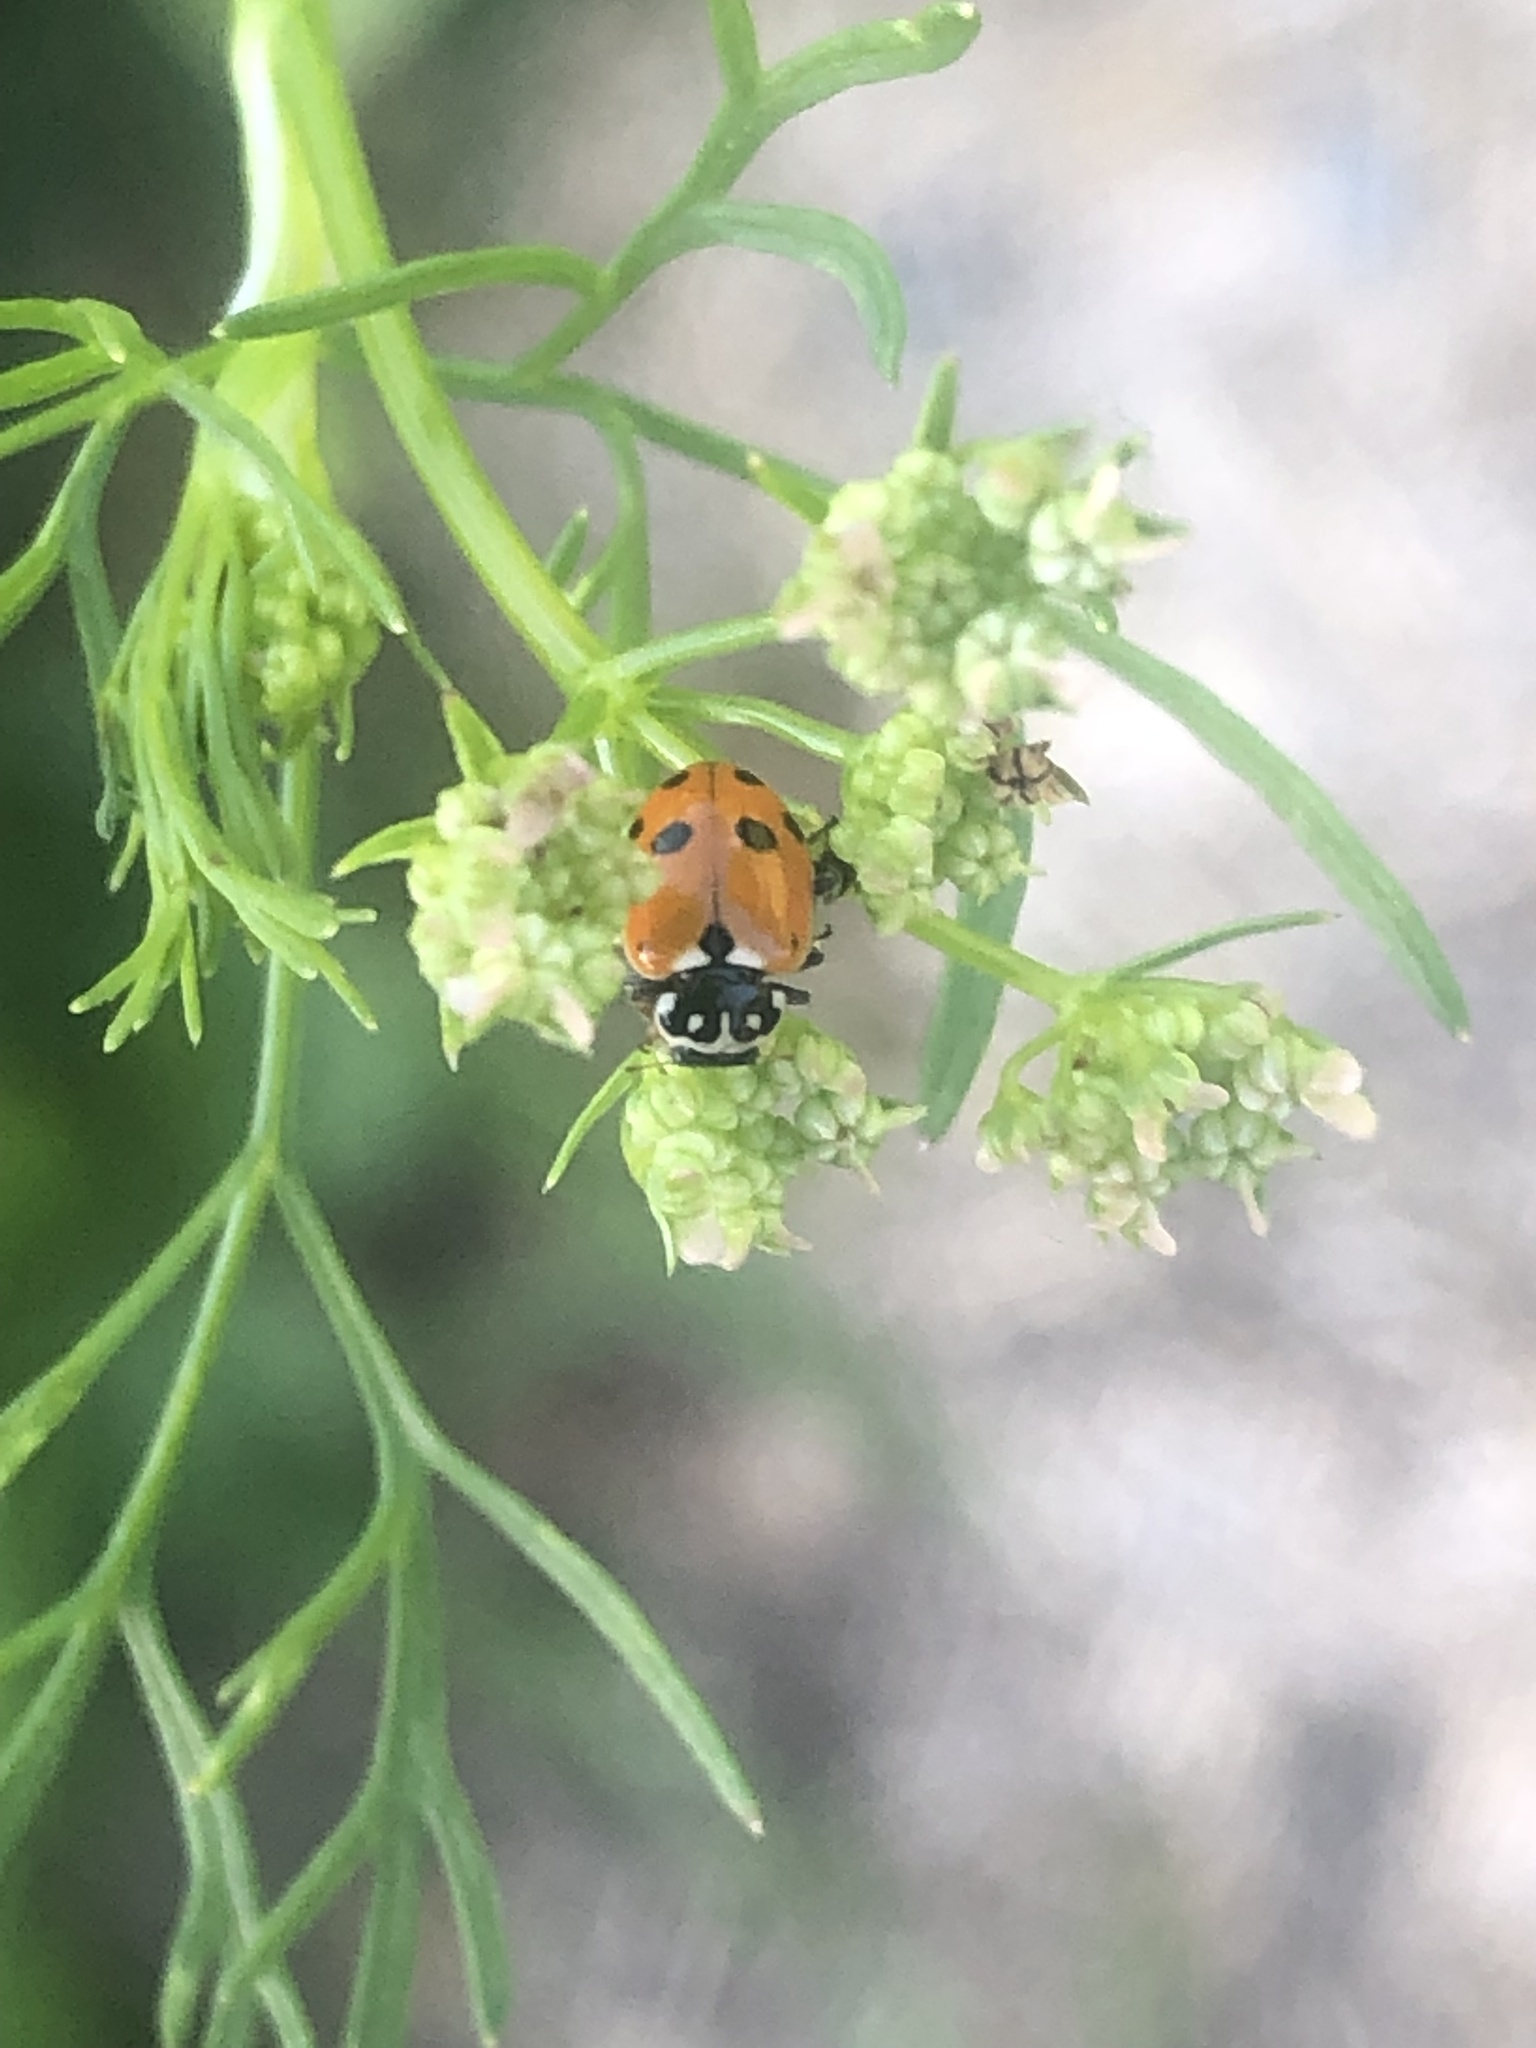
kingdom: Animalia
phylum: Arthropoda
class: Insecta
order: Coleoptera
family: Coccinellidae
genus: Hippodamia
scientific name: Hippodamia variegata
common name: Ladybird beetle
